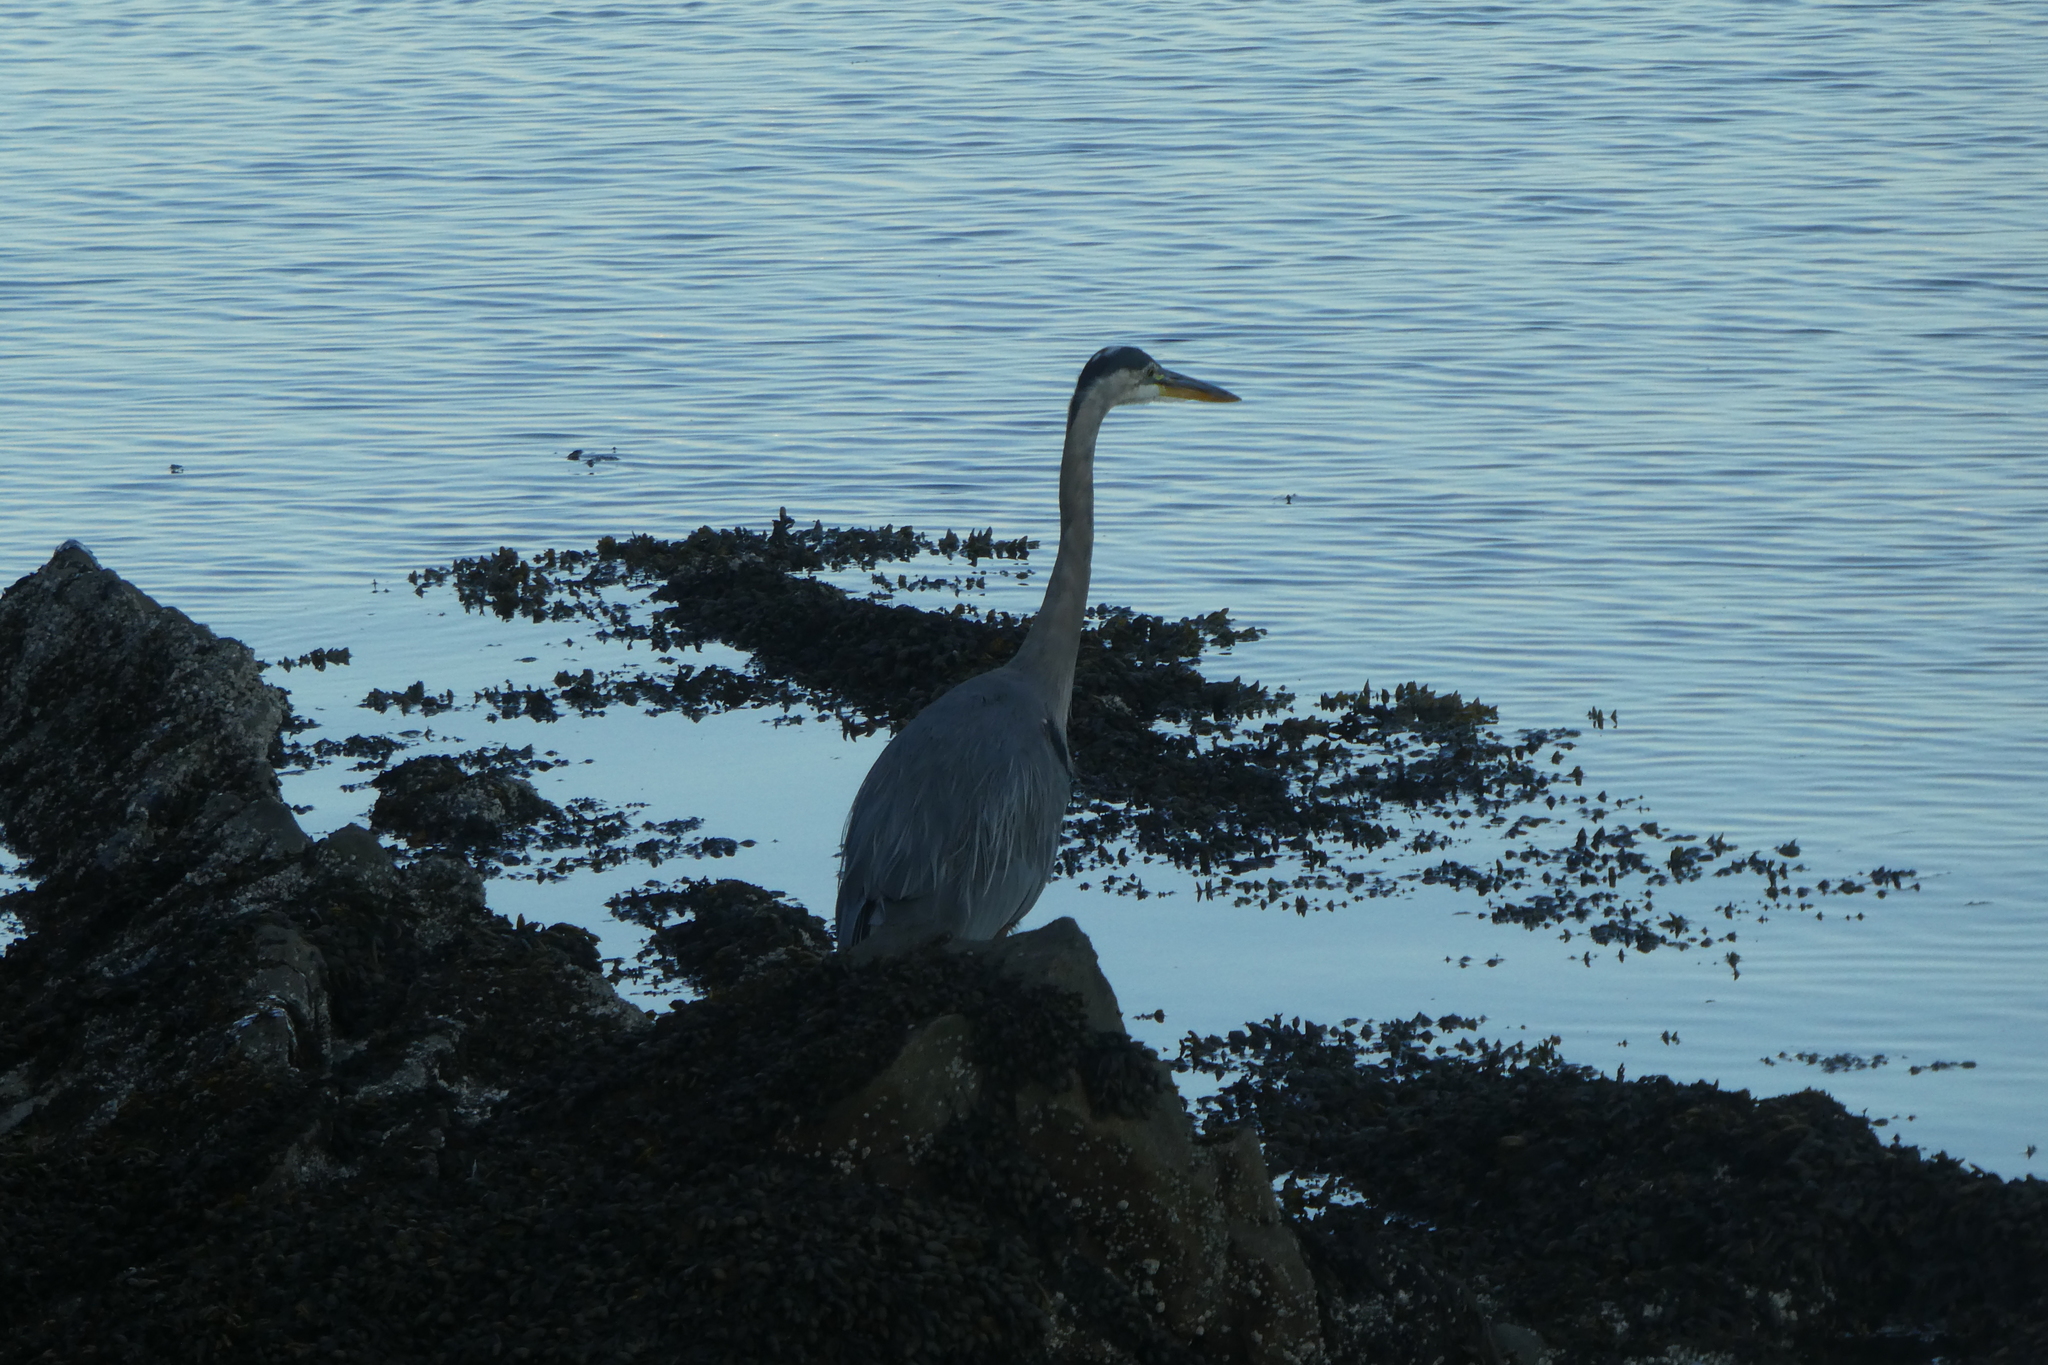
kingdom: Animalia
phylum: Chordata
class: Aves
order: Pelecaniformes
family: Ardeidae
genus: Ardea
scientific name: Ardea herodias
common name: Great blue heron
